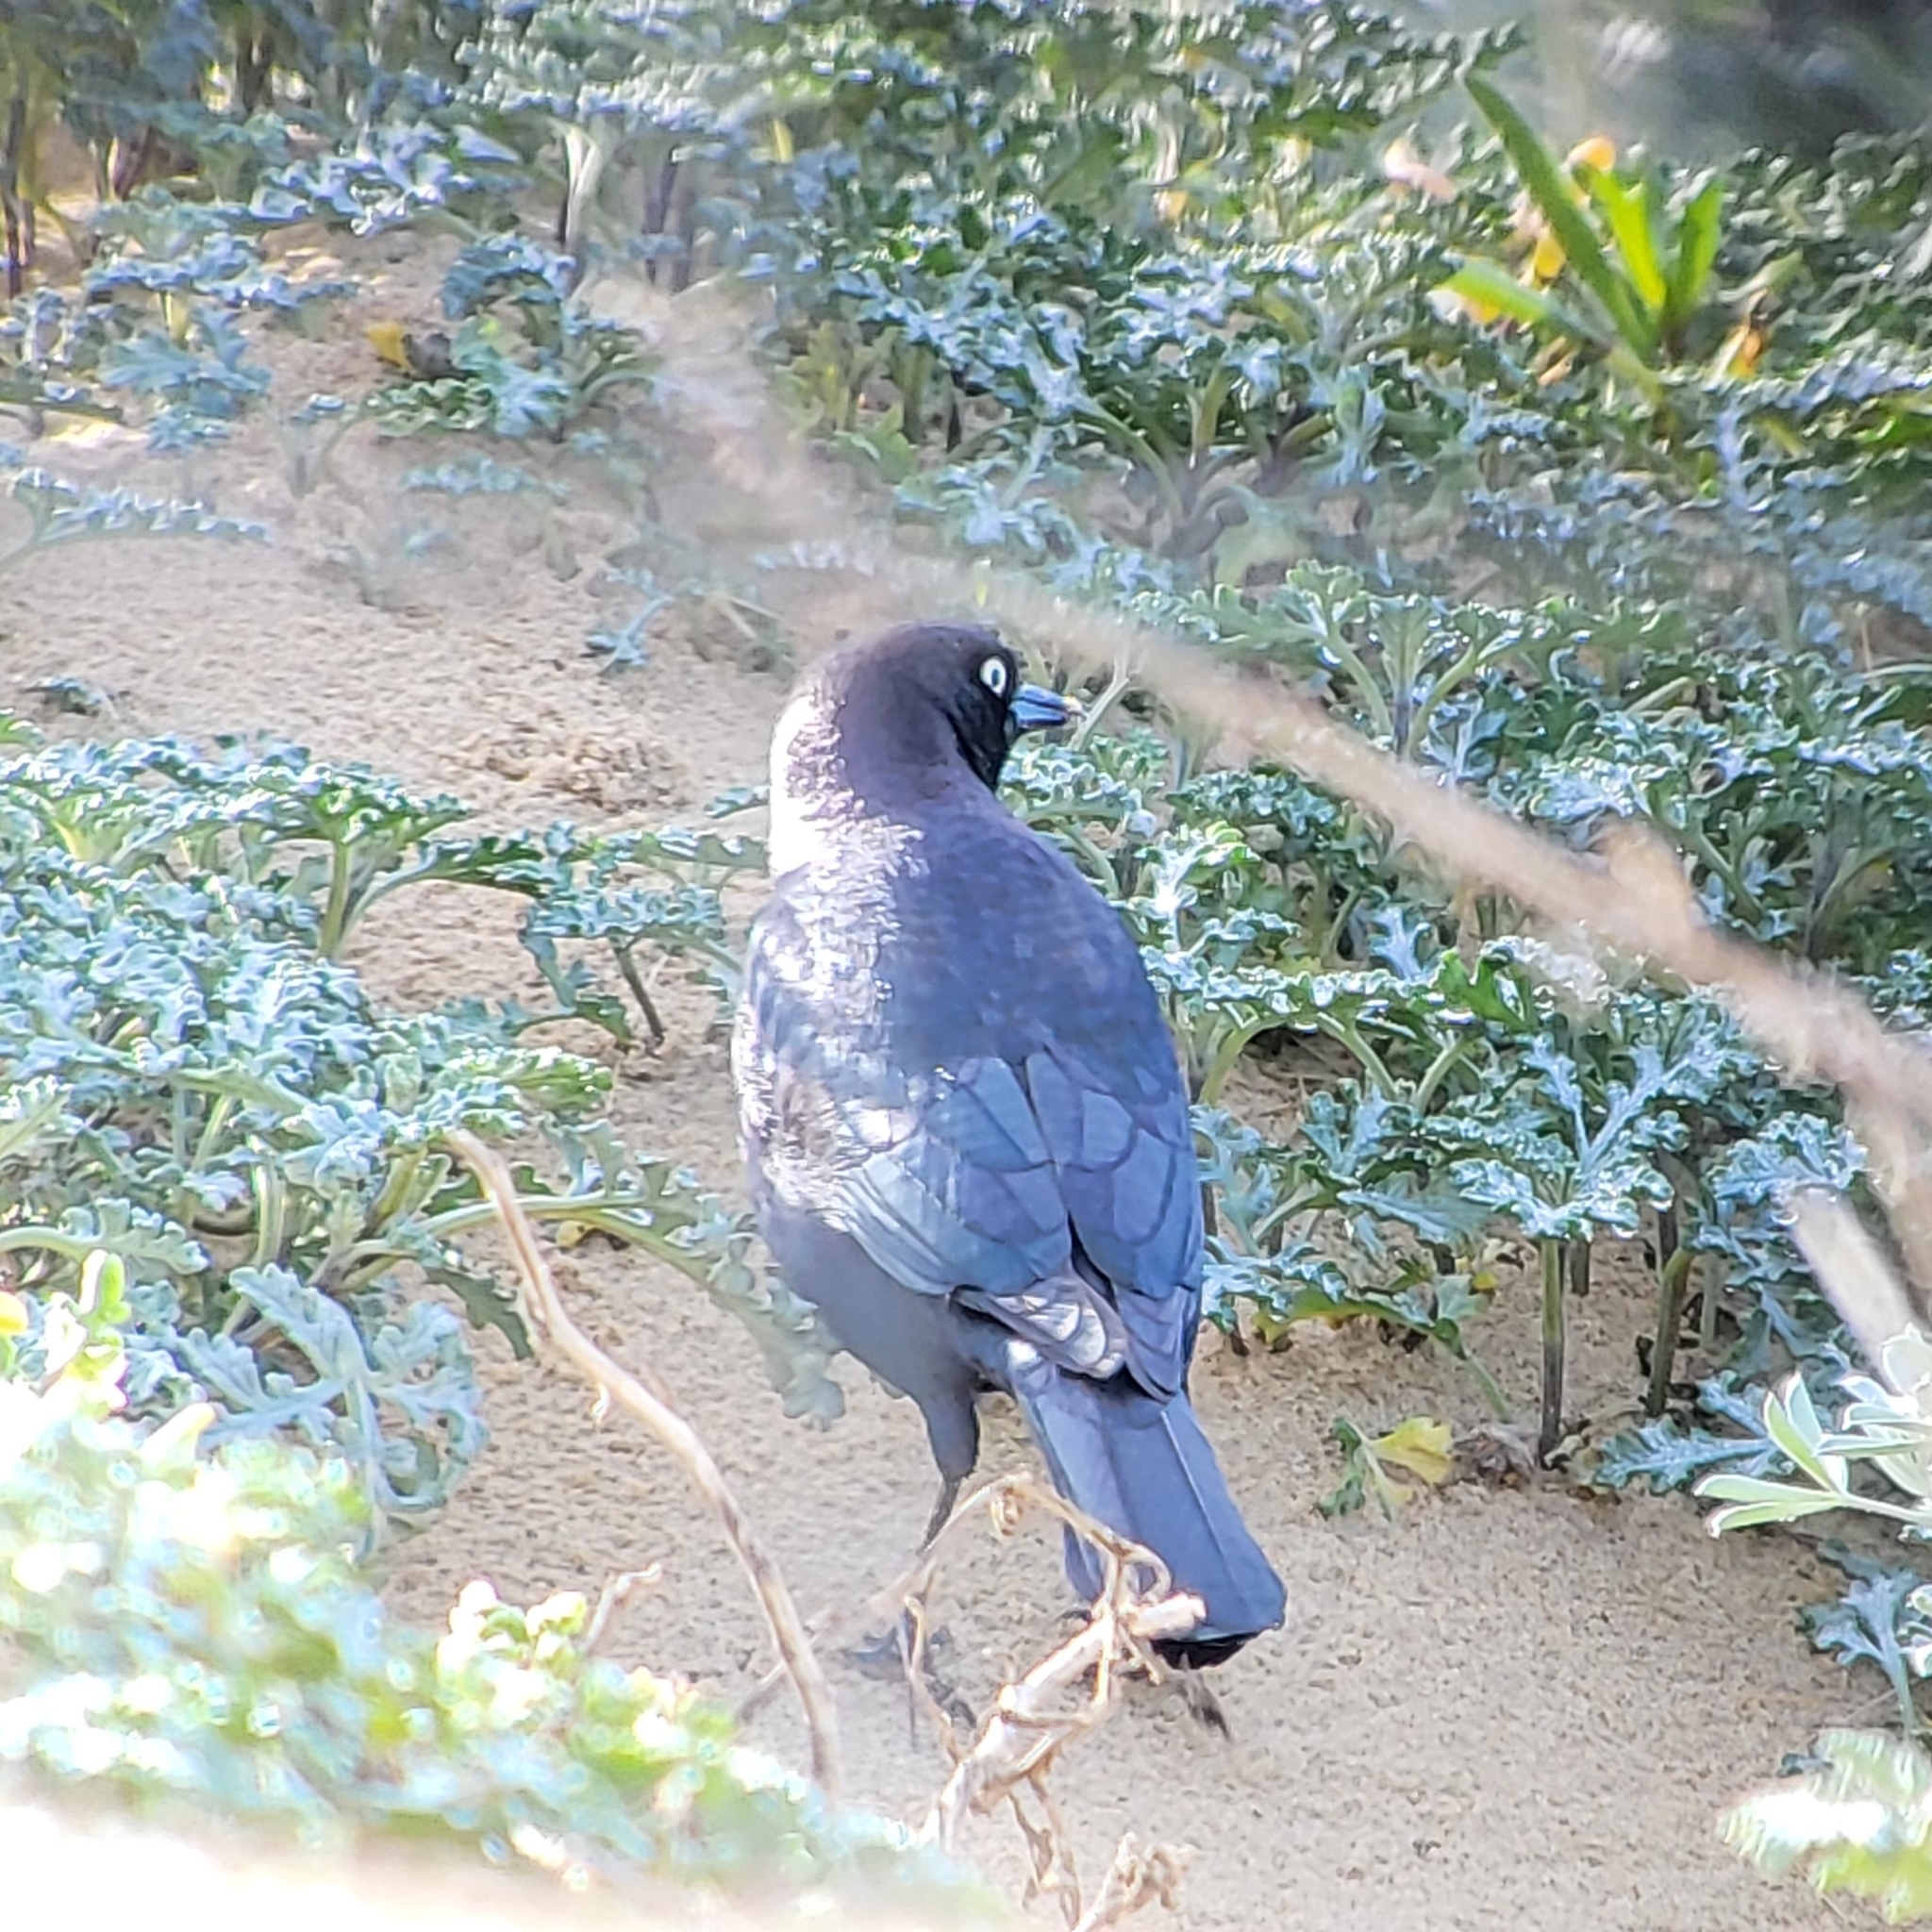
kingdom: Animalia
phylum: Chordata
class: Aves
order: Passeriformes
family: Icteridae
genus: Euphagus
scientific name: Euphagus cyanocephalus
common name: Brewer's blackbird
